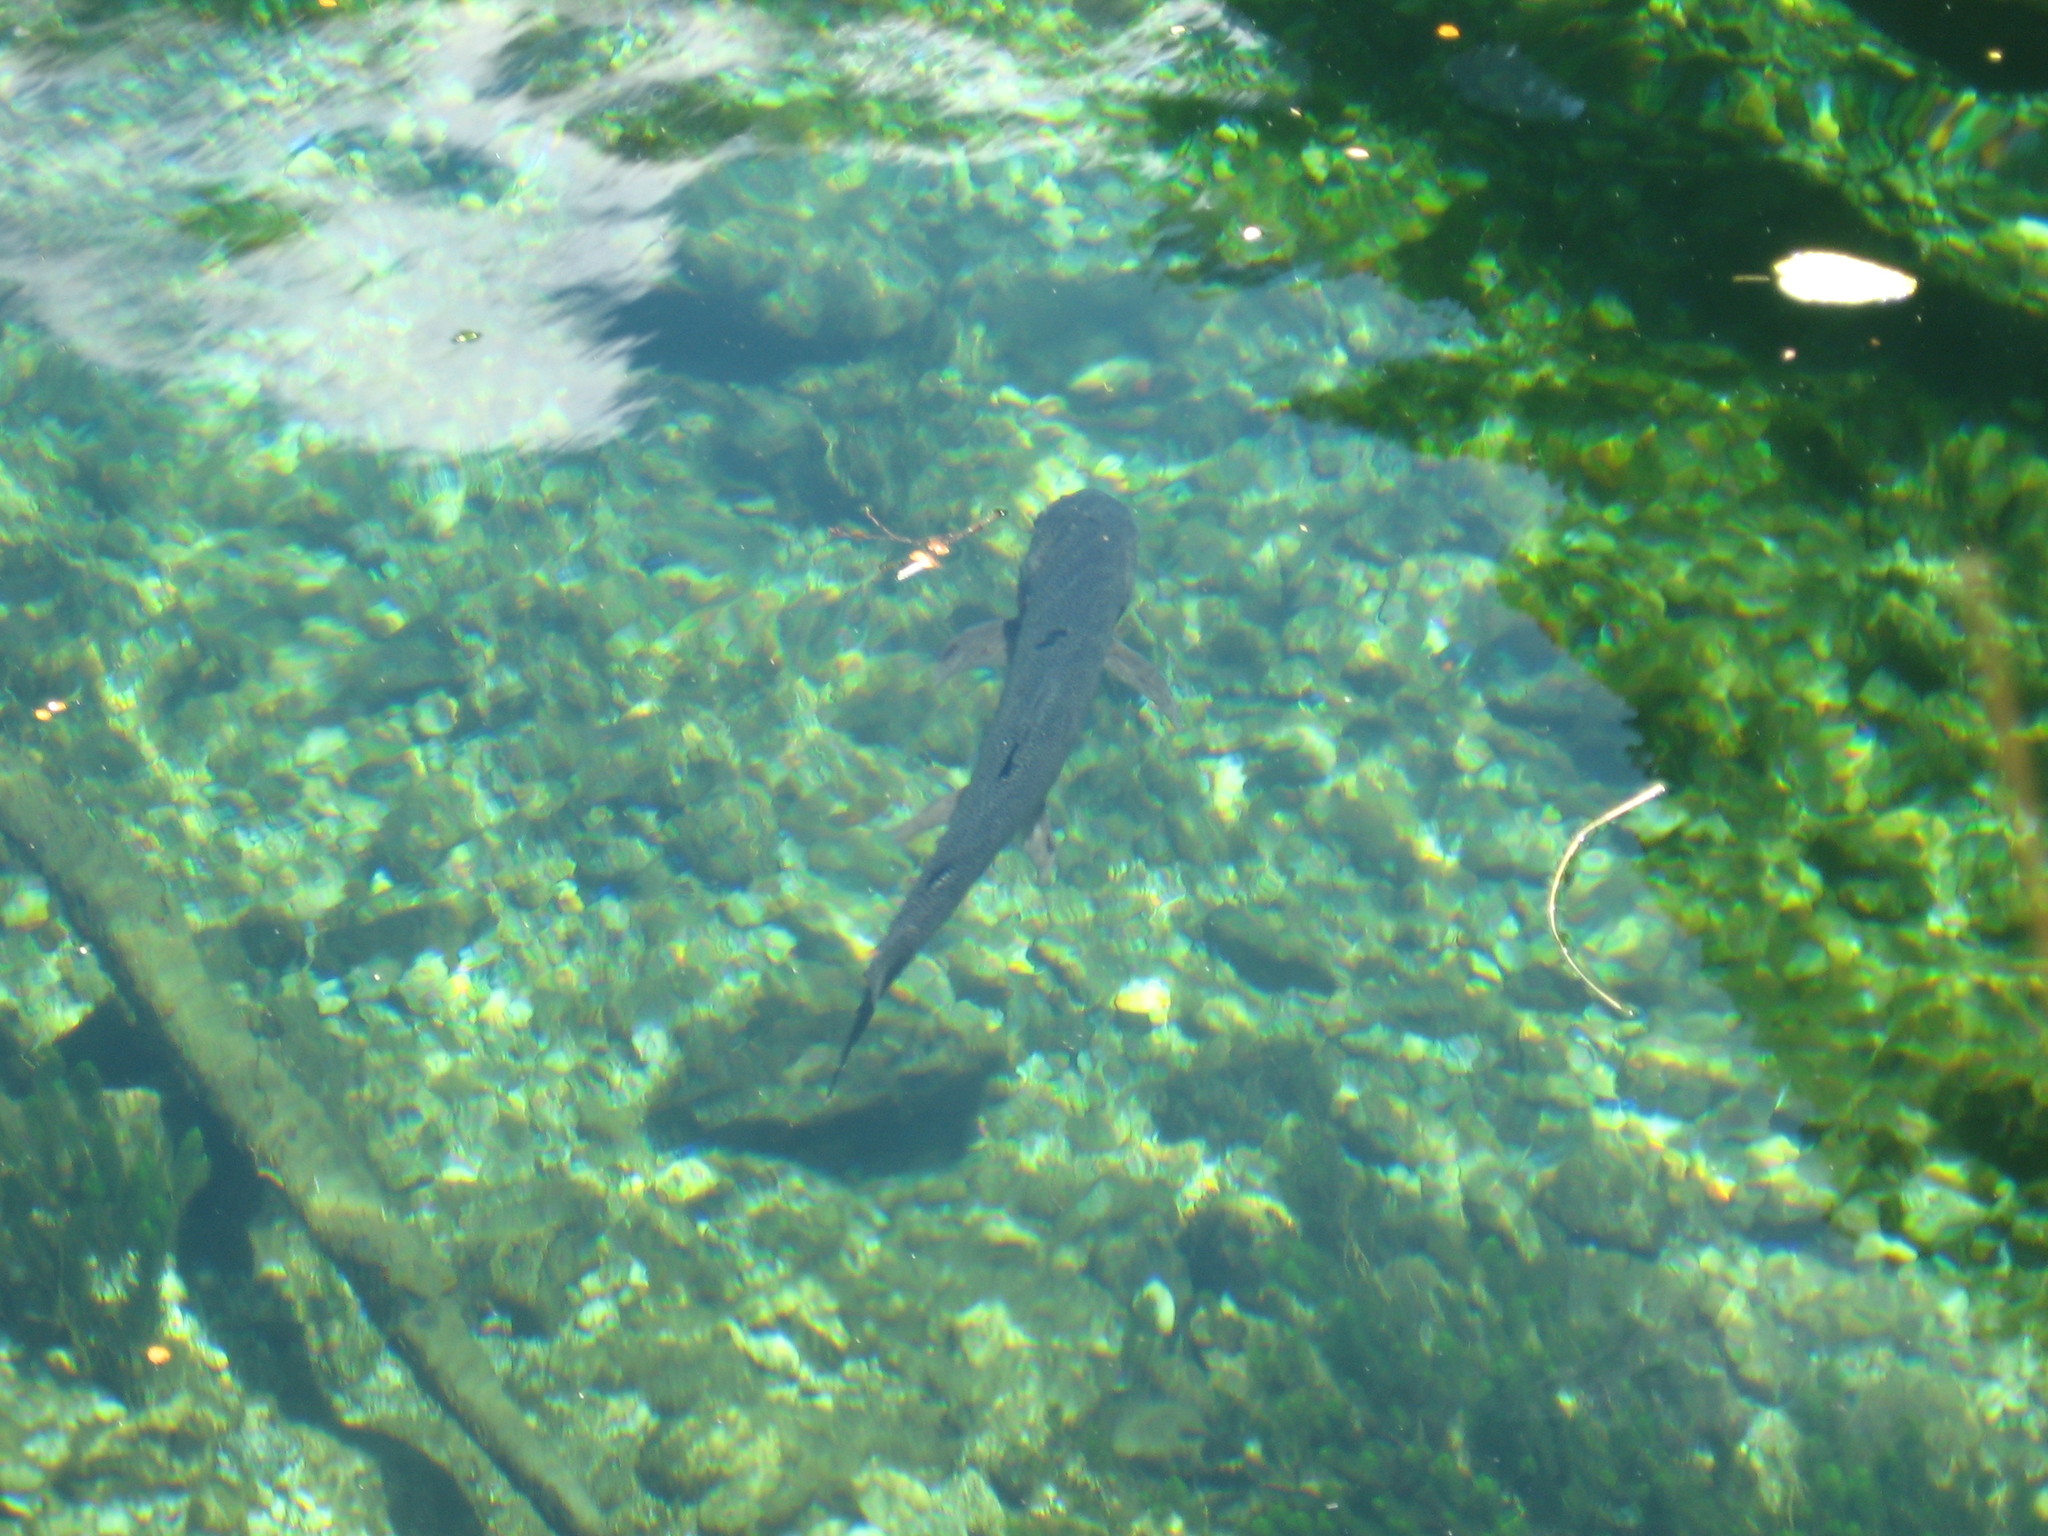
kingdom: Animalia
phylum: Chordata
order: Salmoniformes
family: Salmonidae
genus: Oncorhynchus
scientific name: Oncorhynchus mykiss
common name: Rainbow trout
